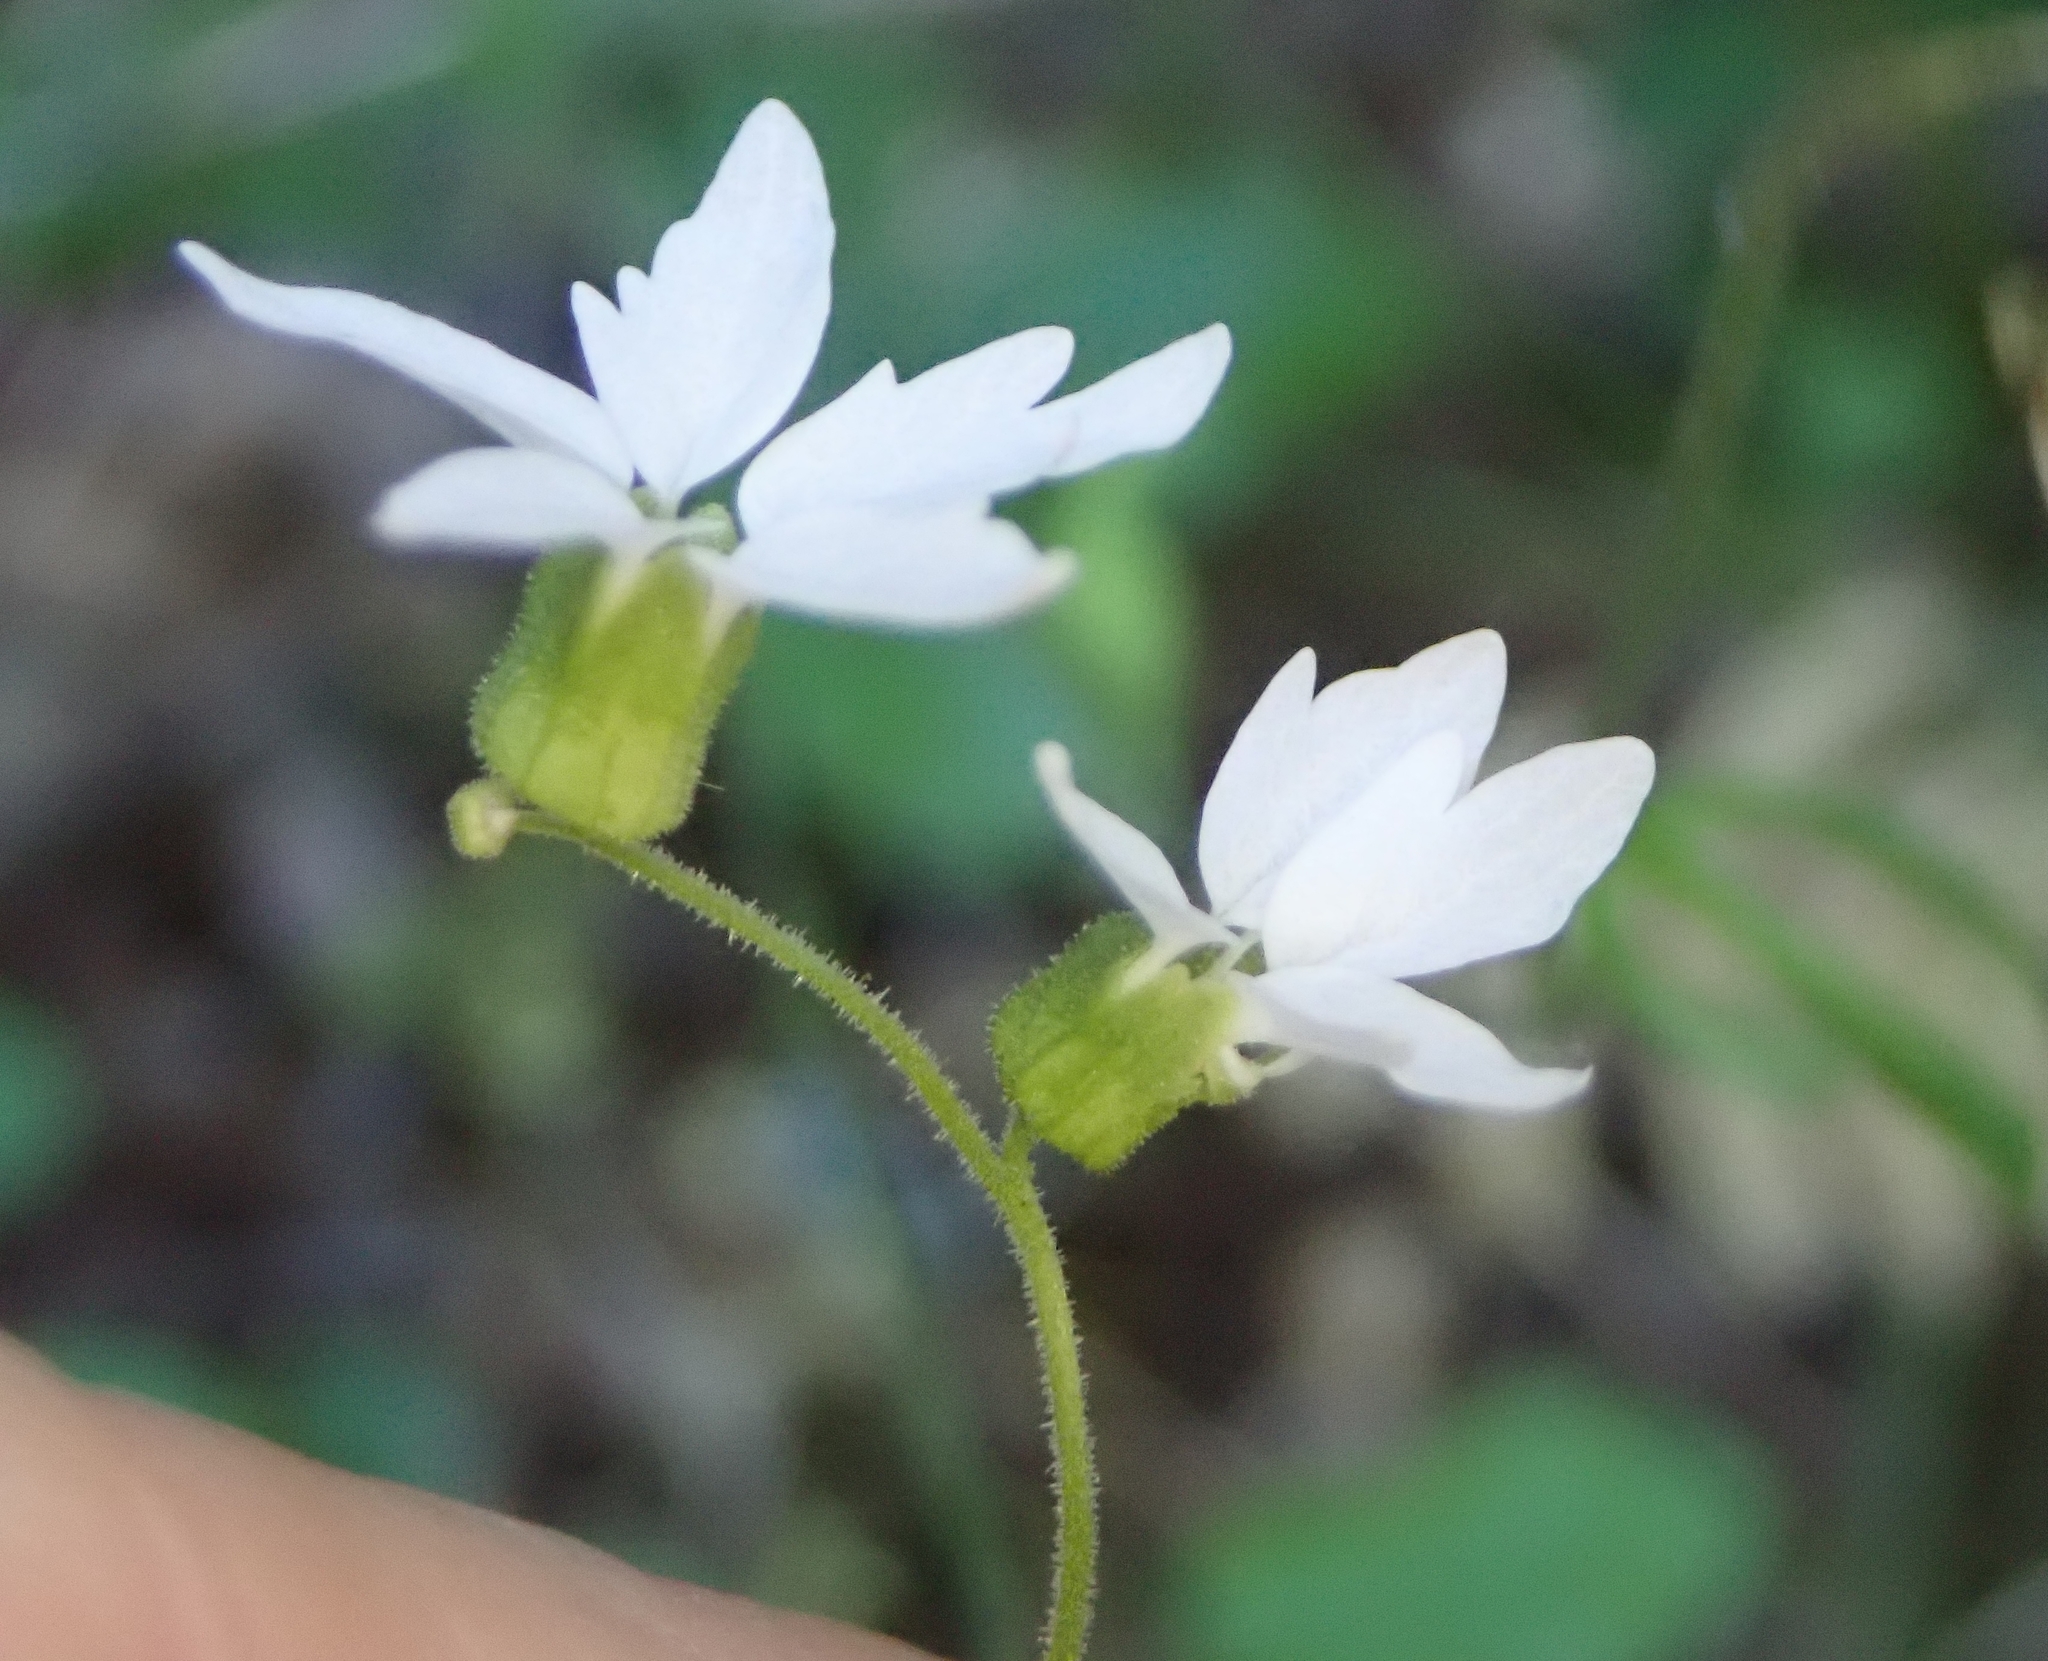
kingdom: Plantae
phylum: Tracheophyta
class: Magnoliopsida
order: Saxifragales
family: Saxifragaceae
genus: Lithophragma
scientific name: Lithophragma heterophyllum
